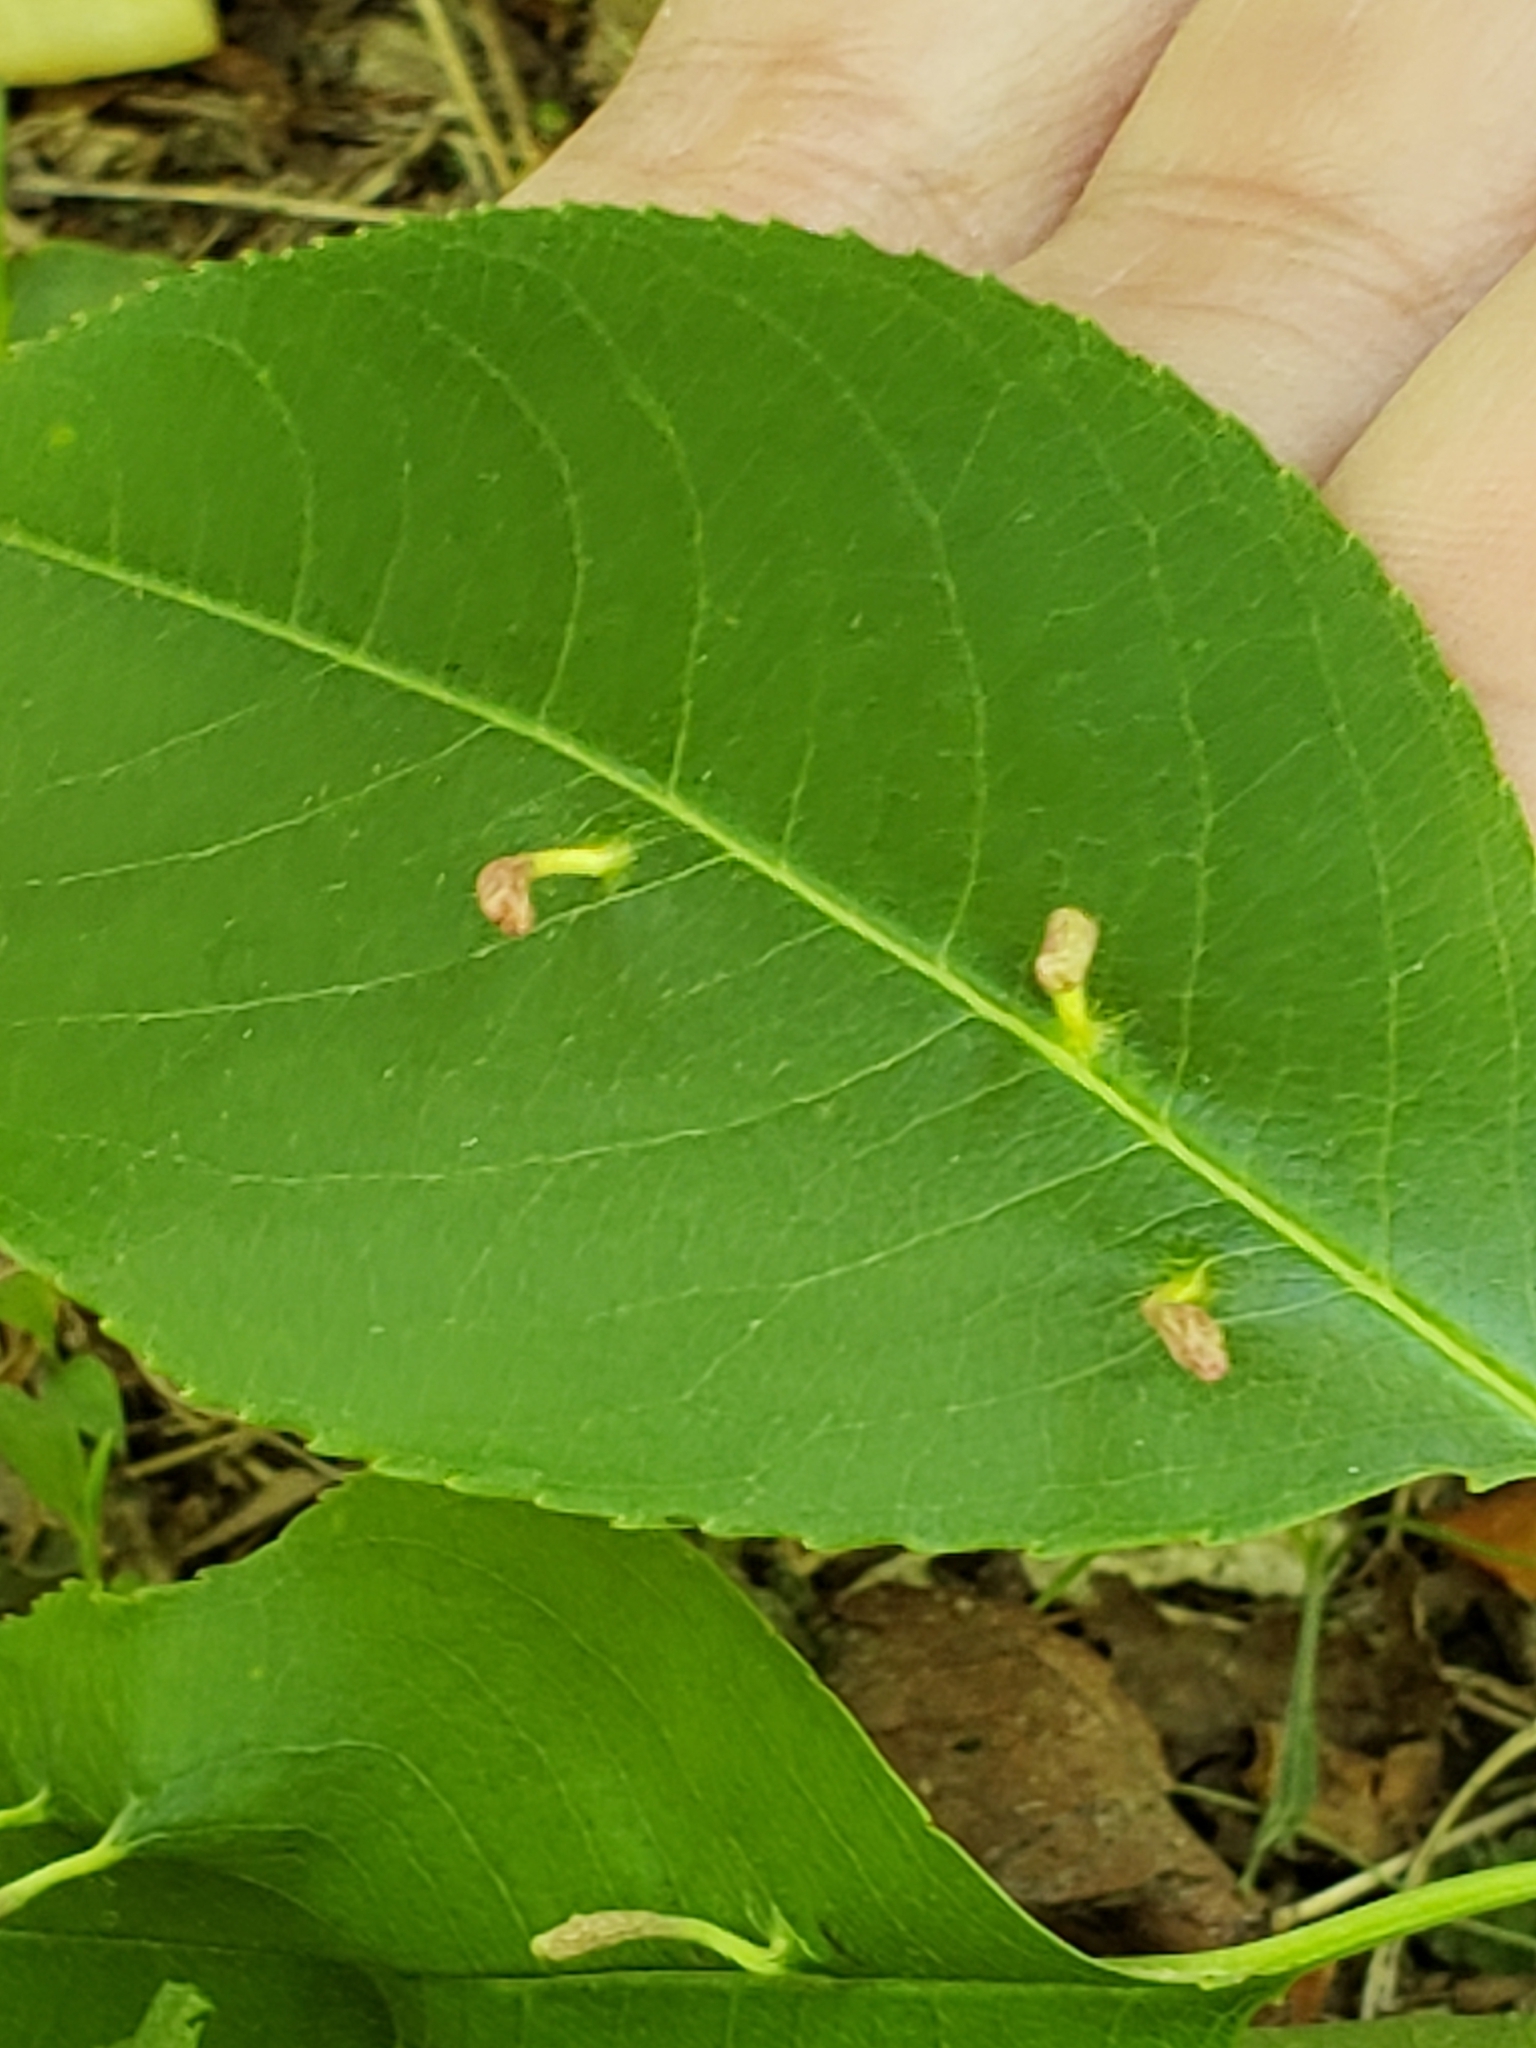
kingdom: Animalia
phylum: Arthropoda
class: Arachnida
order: Trombidiformes
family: Eriophyidae
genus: Eriophyes
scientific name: Eriophyes
